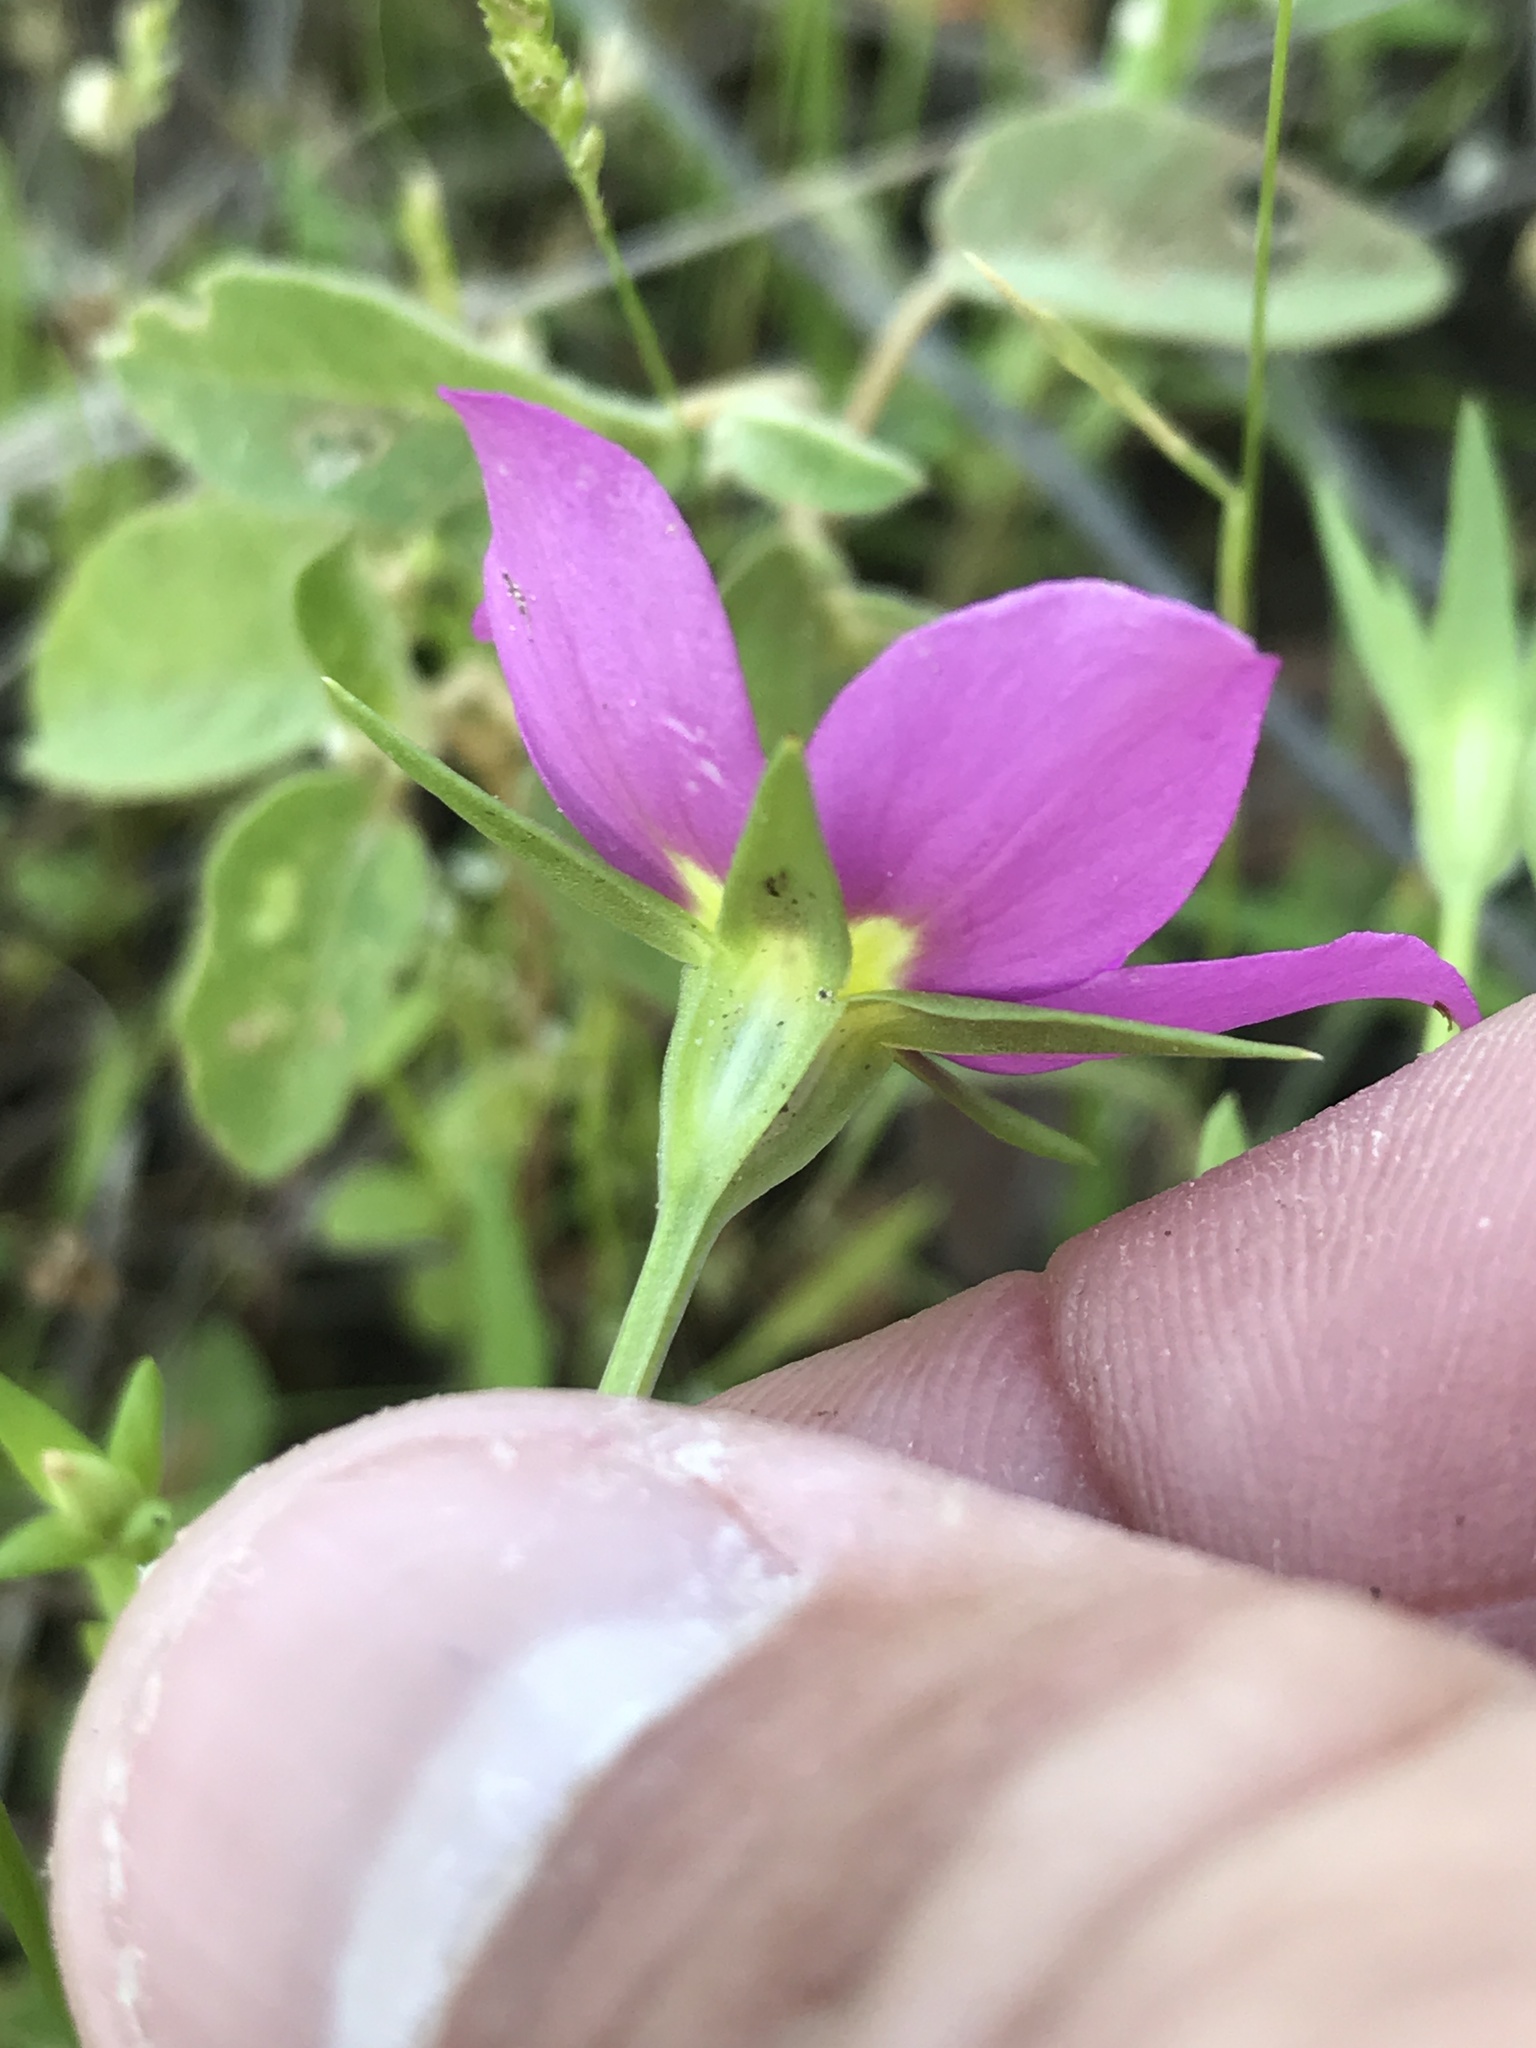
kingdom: Plantae
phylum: Tracheophyta
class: Magnoliopsida
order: Gentianales
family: Gentianaceae
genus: Sabatia
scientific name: Sabatia campestris
